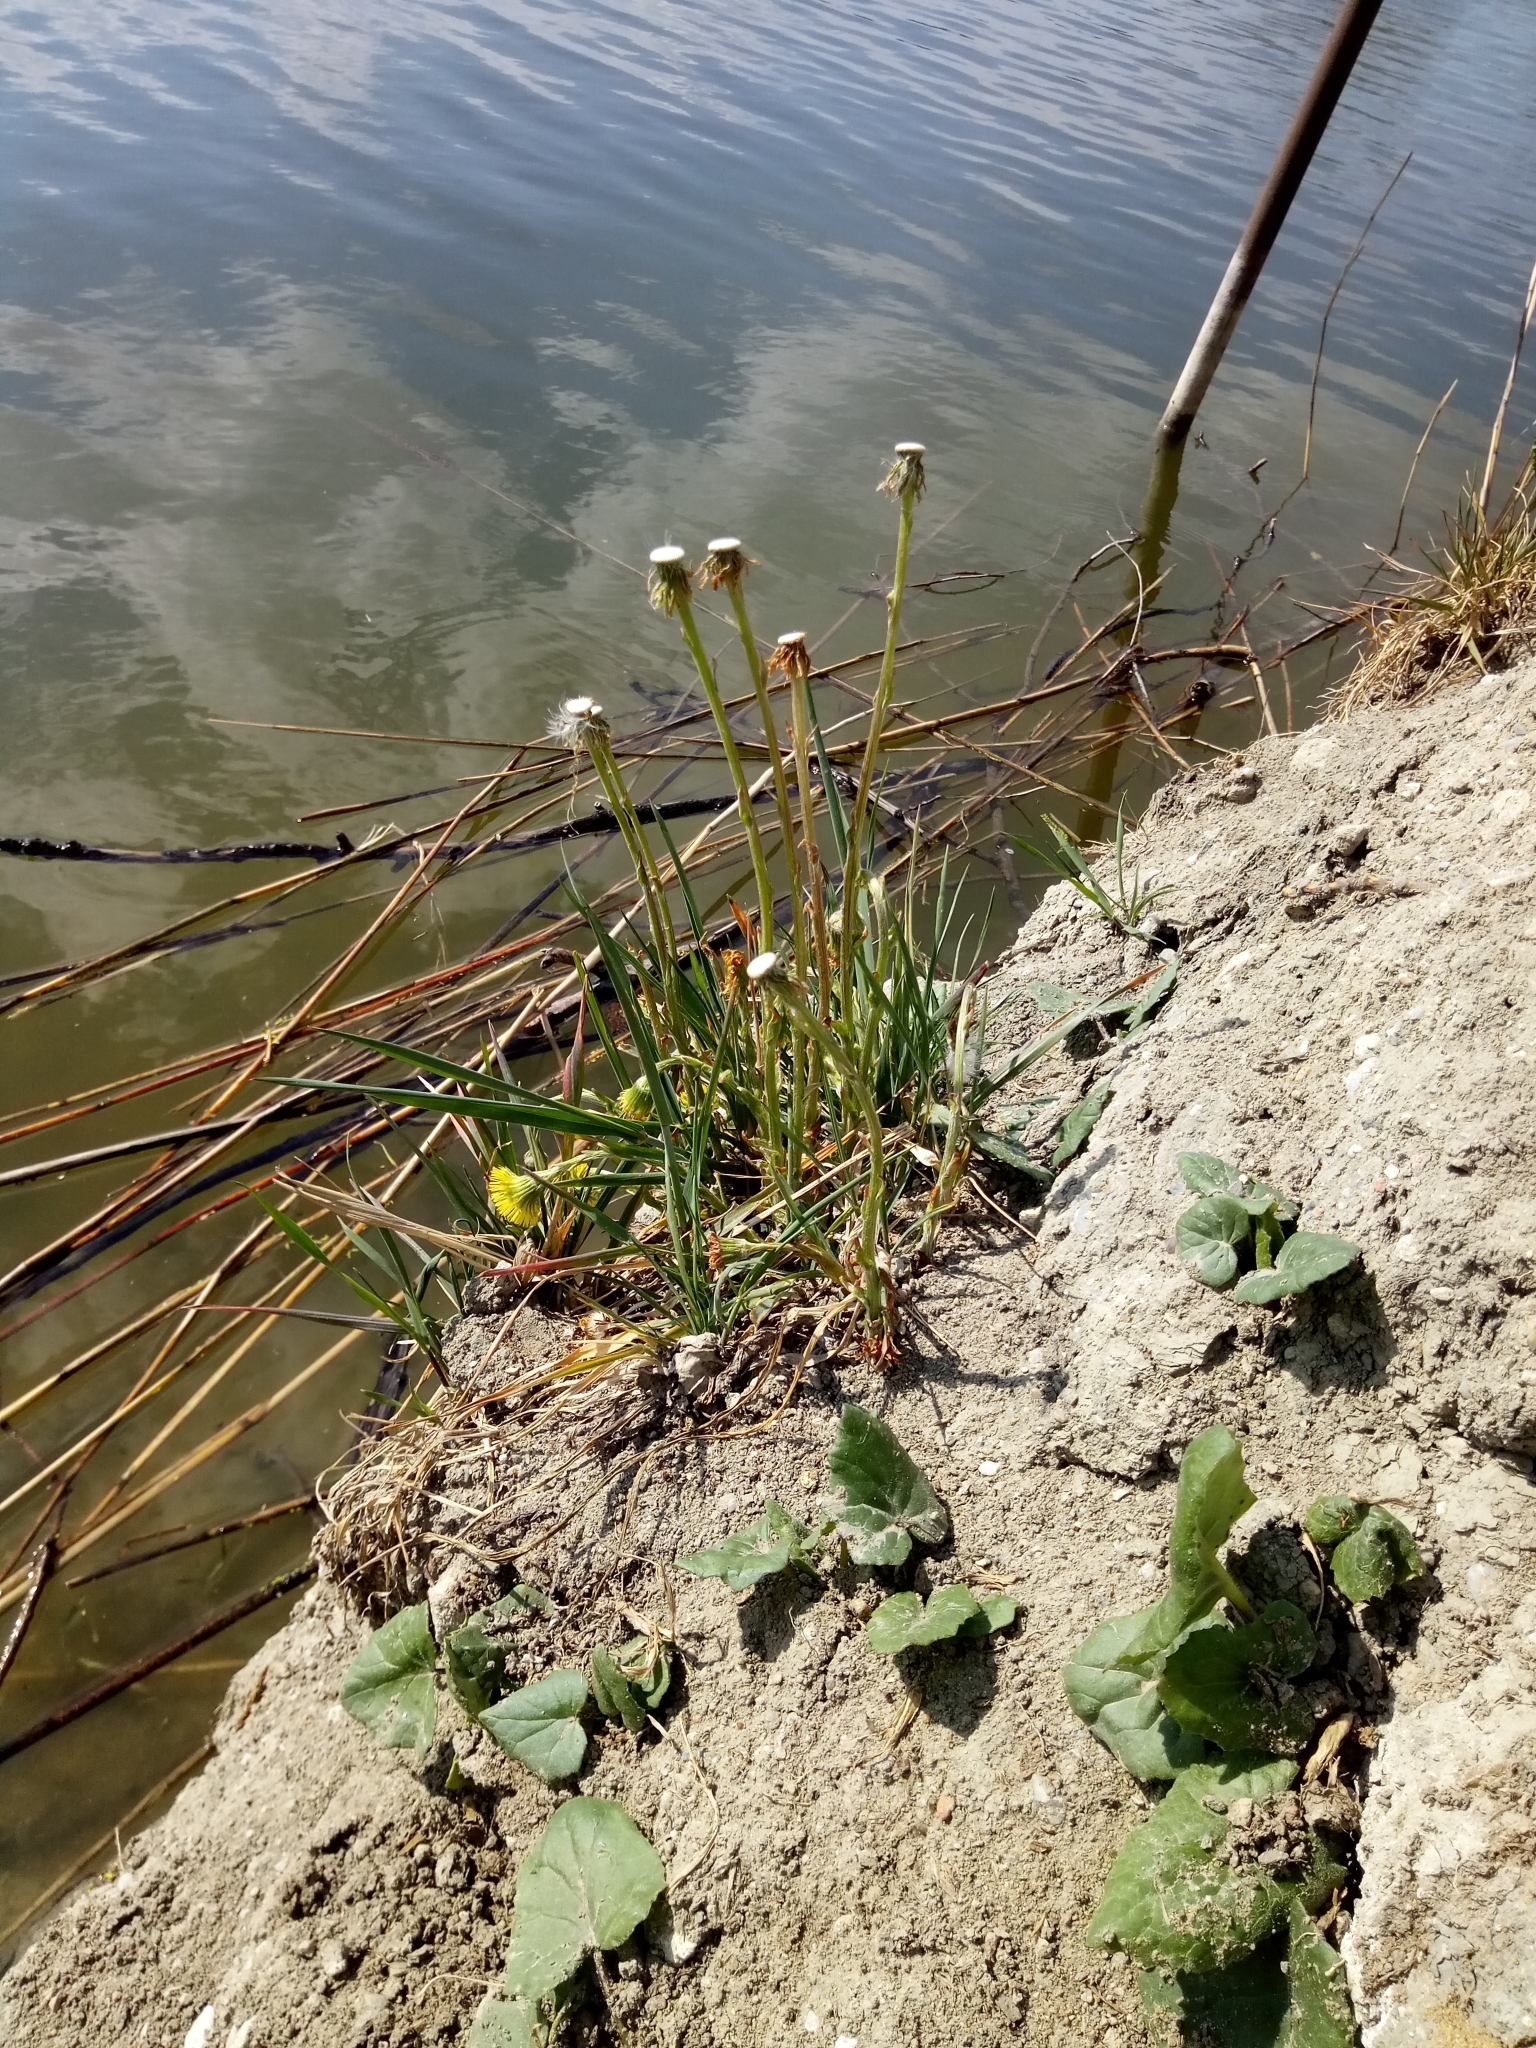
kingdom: Plantae
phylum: Tracheophyta
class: Magnoliopsida
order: Asterales
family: Asteraceae
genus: Tussilago
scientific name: Tussilago farfara
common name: Coltsfoot
